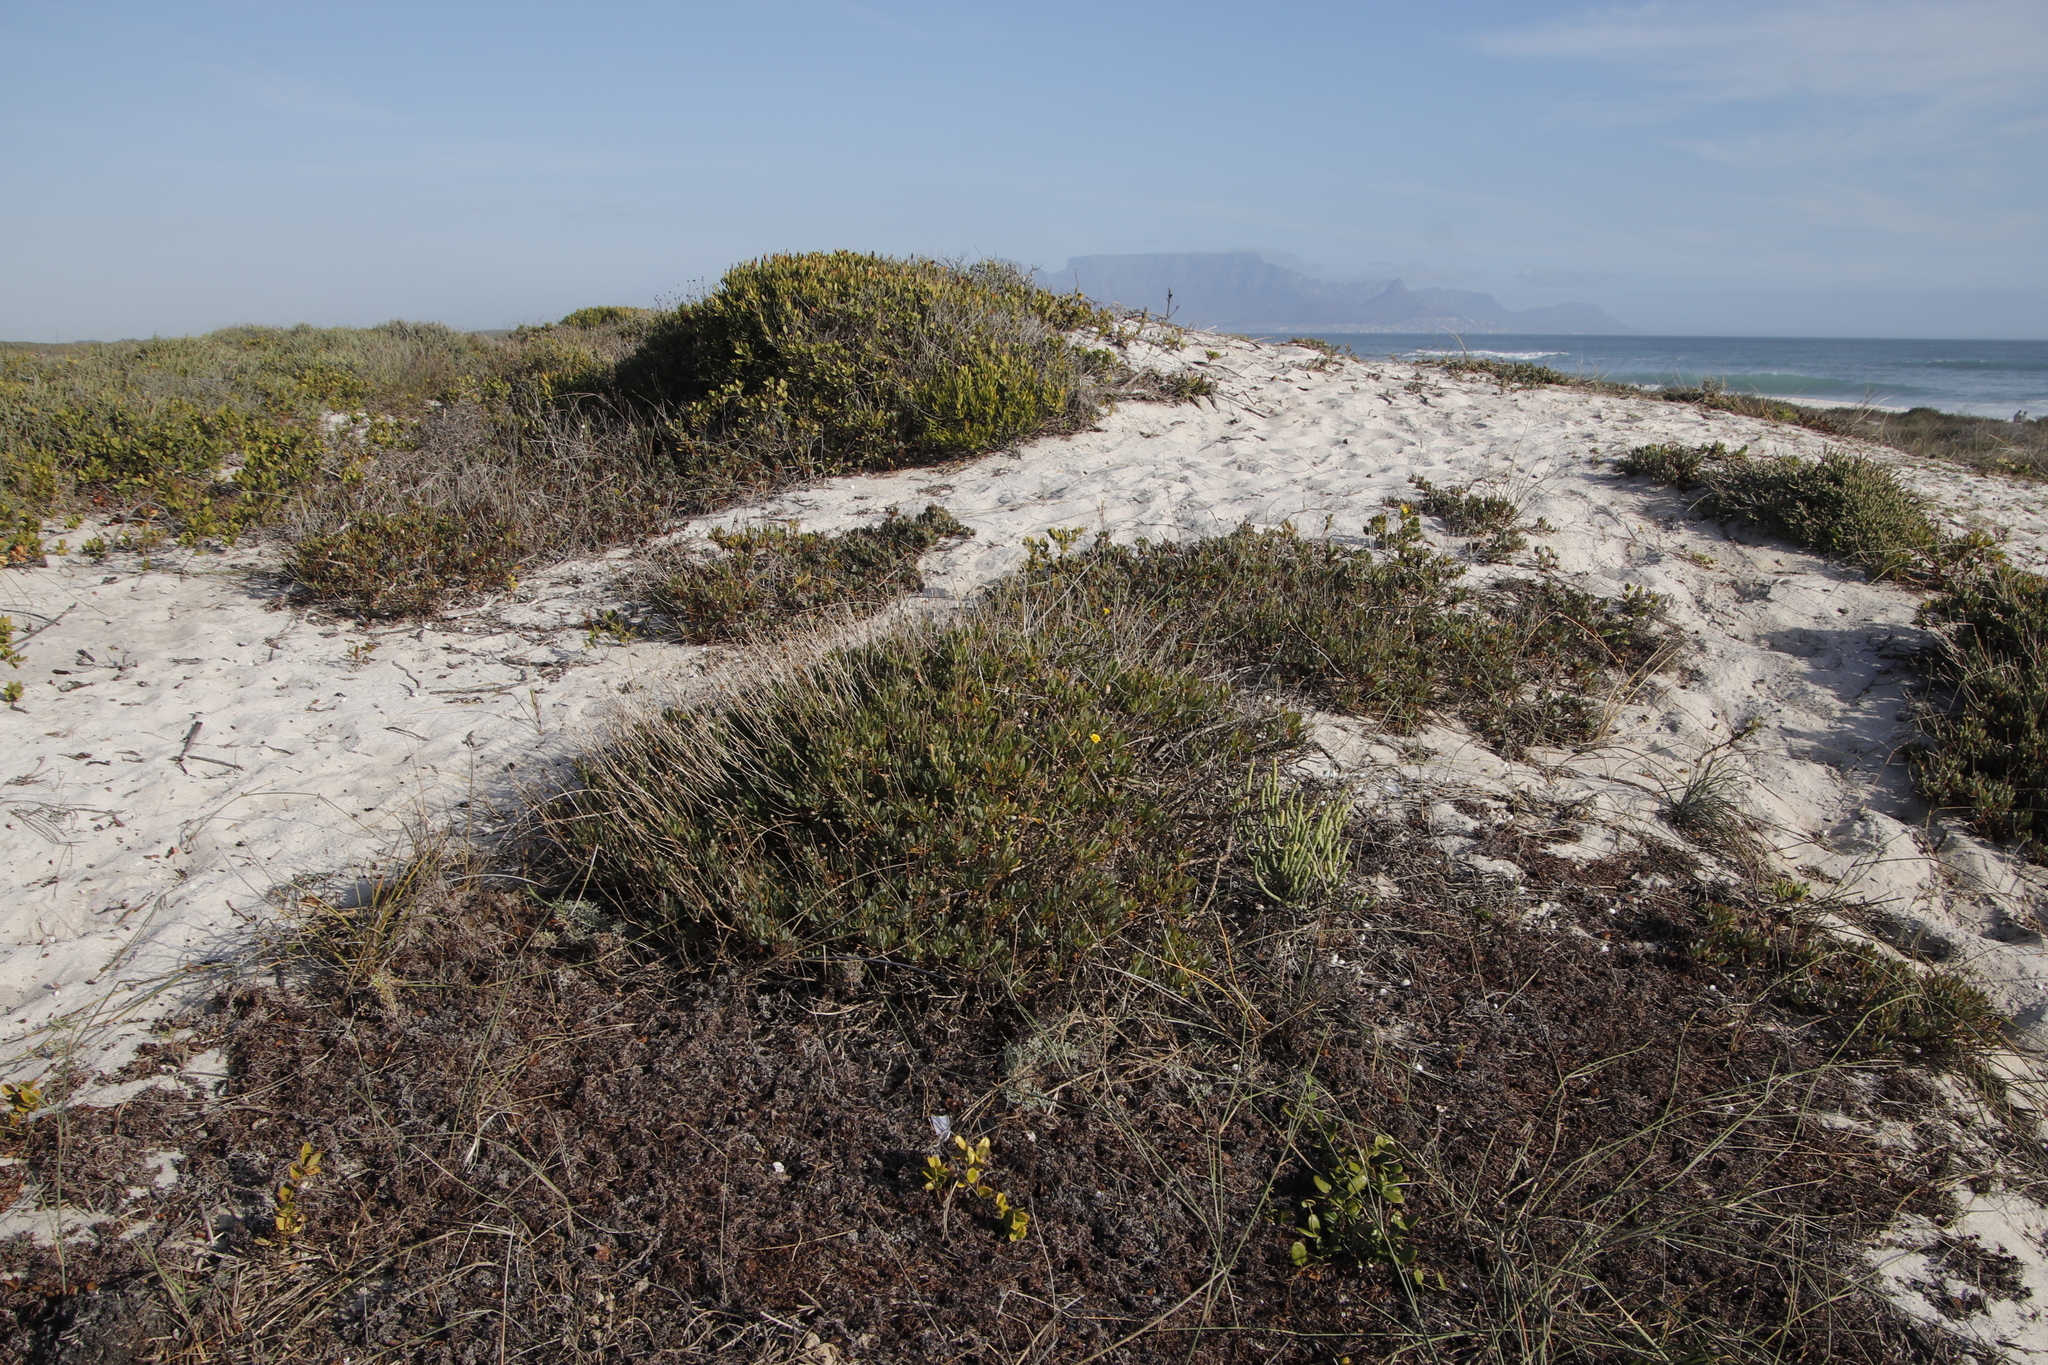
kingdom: Plantae
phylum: Tracheophyta
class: Magnoliopsida
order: Asterales
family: Asteraceae
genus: Othonna
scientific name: Othonna coronopifolia
